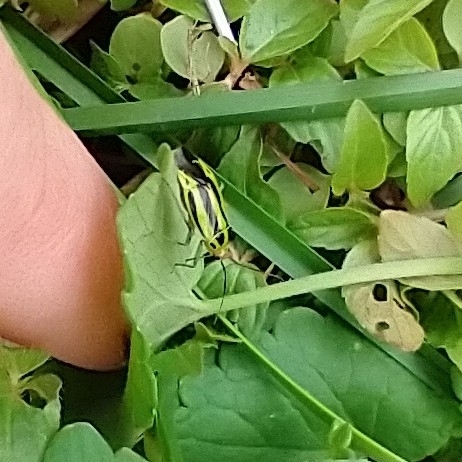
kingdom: Animalia
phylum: Arthropoda
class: Insecta
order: Hemiptera
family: Miridae
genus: Poecilocapsus
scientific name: Poecilocapsus lineatus
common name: Four-lined plant bug
